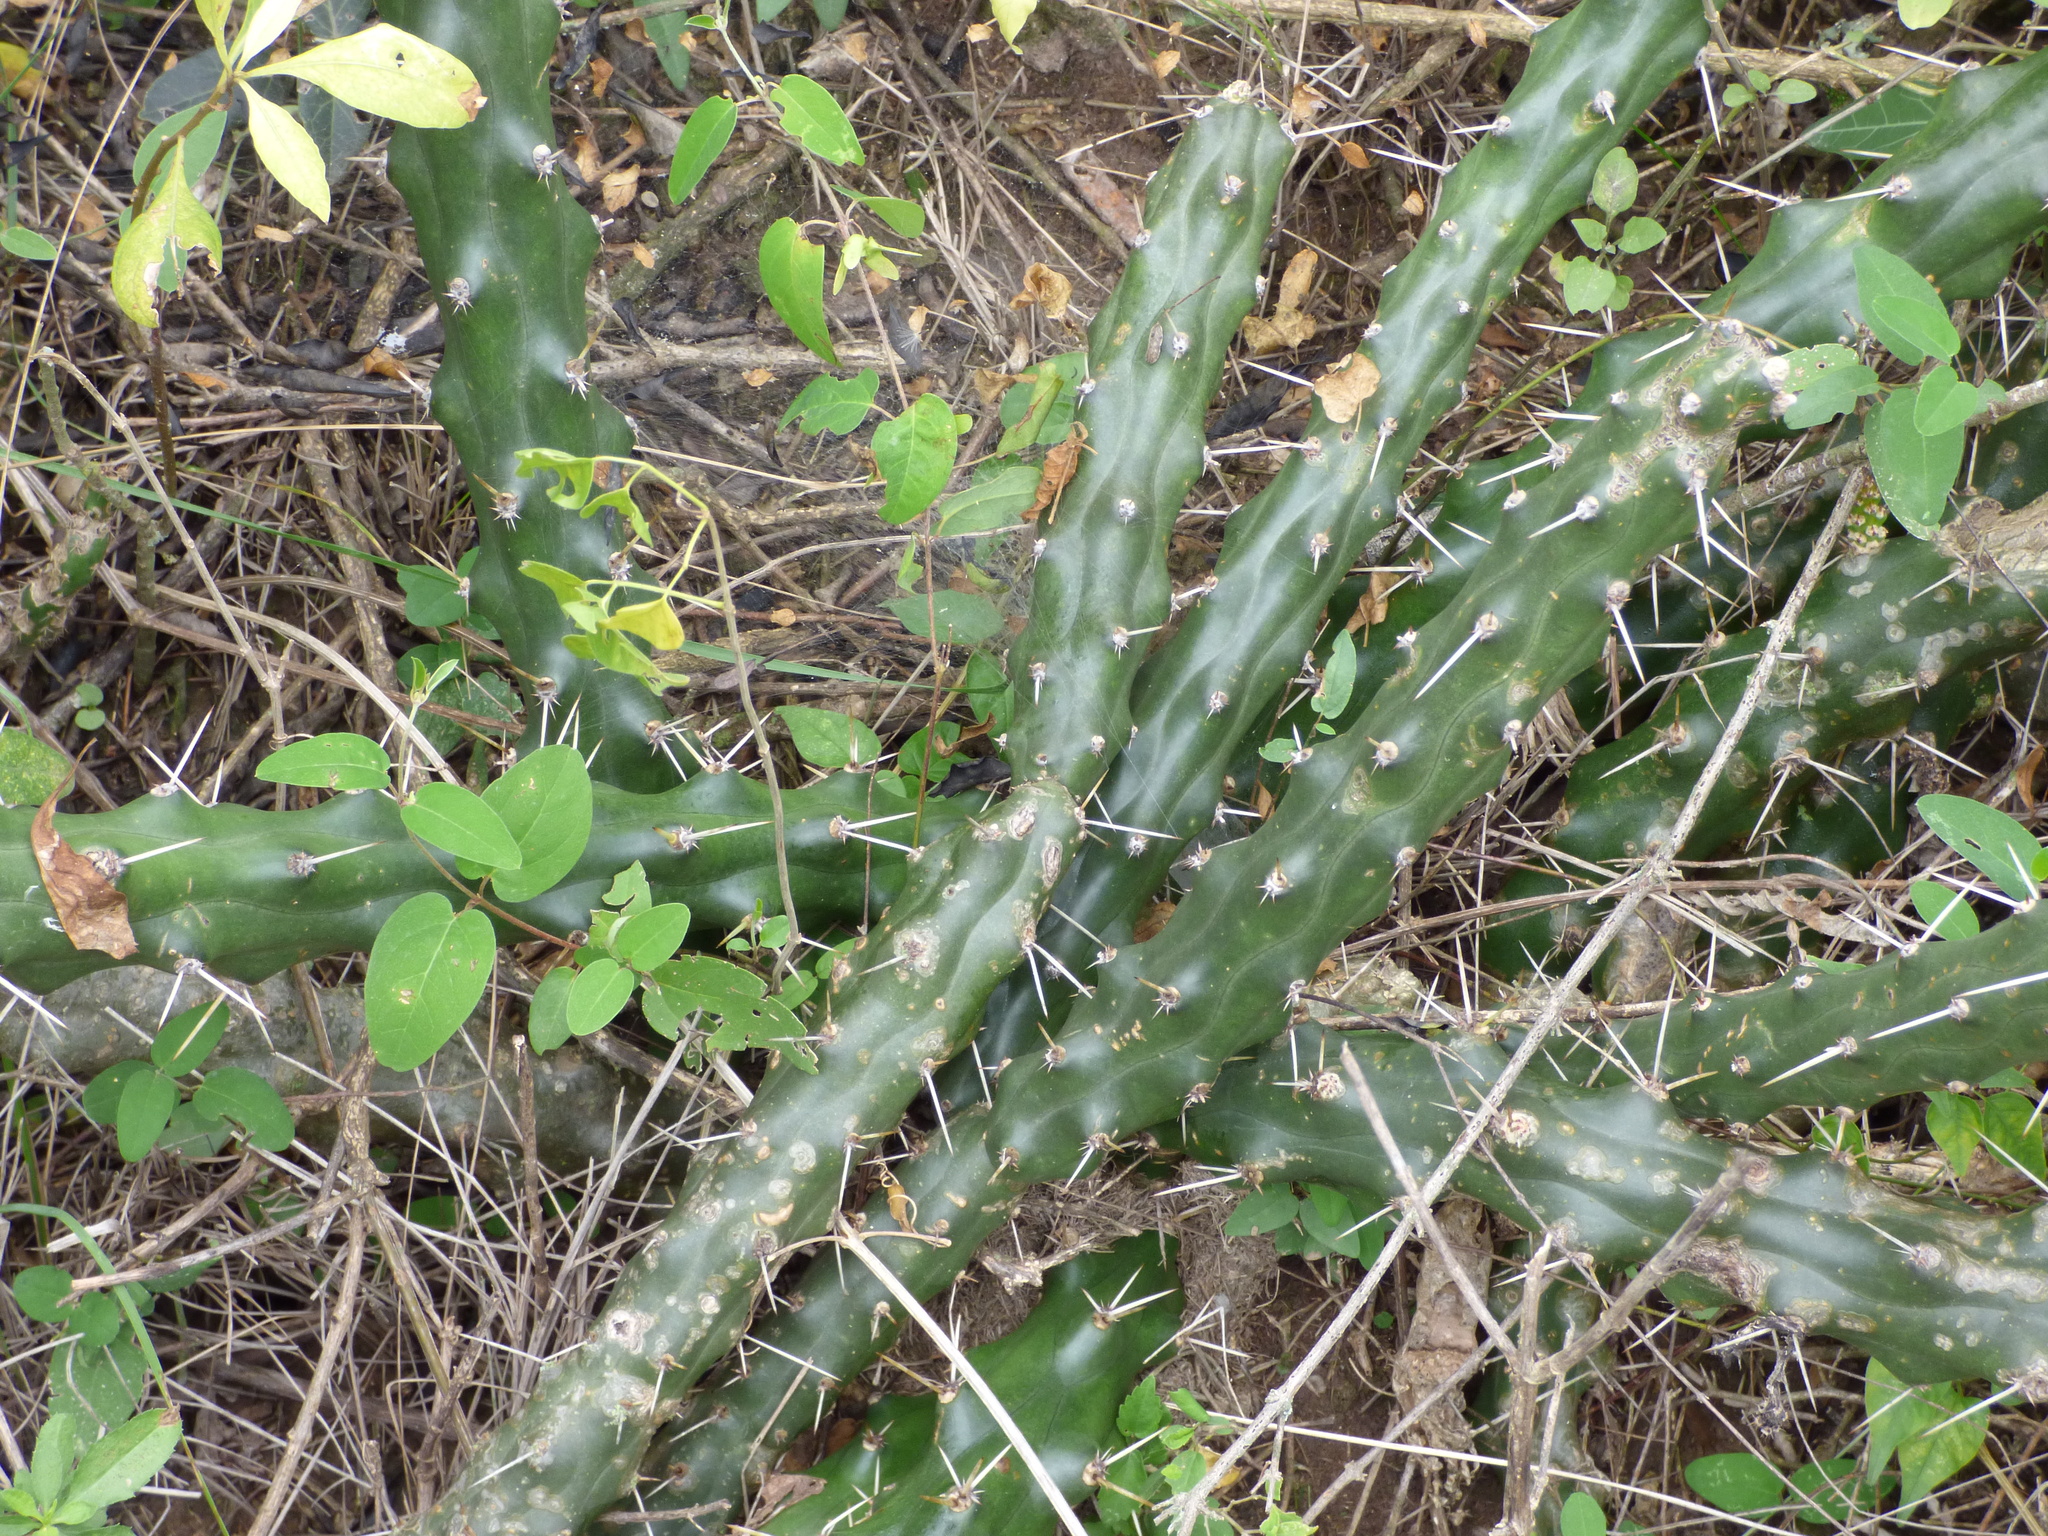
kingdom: Plantae
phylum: Tracheophyta
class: Magnoliopsida
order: Caryophyllales
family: Cactaceae
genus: Harrisia
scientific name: Harrisia martinii
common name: Moon cactus
